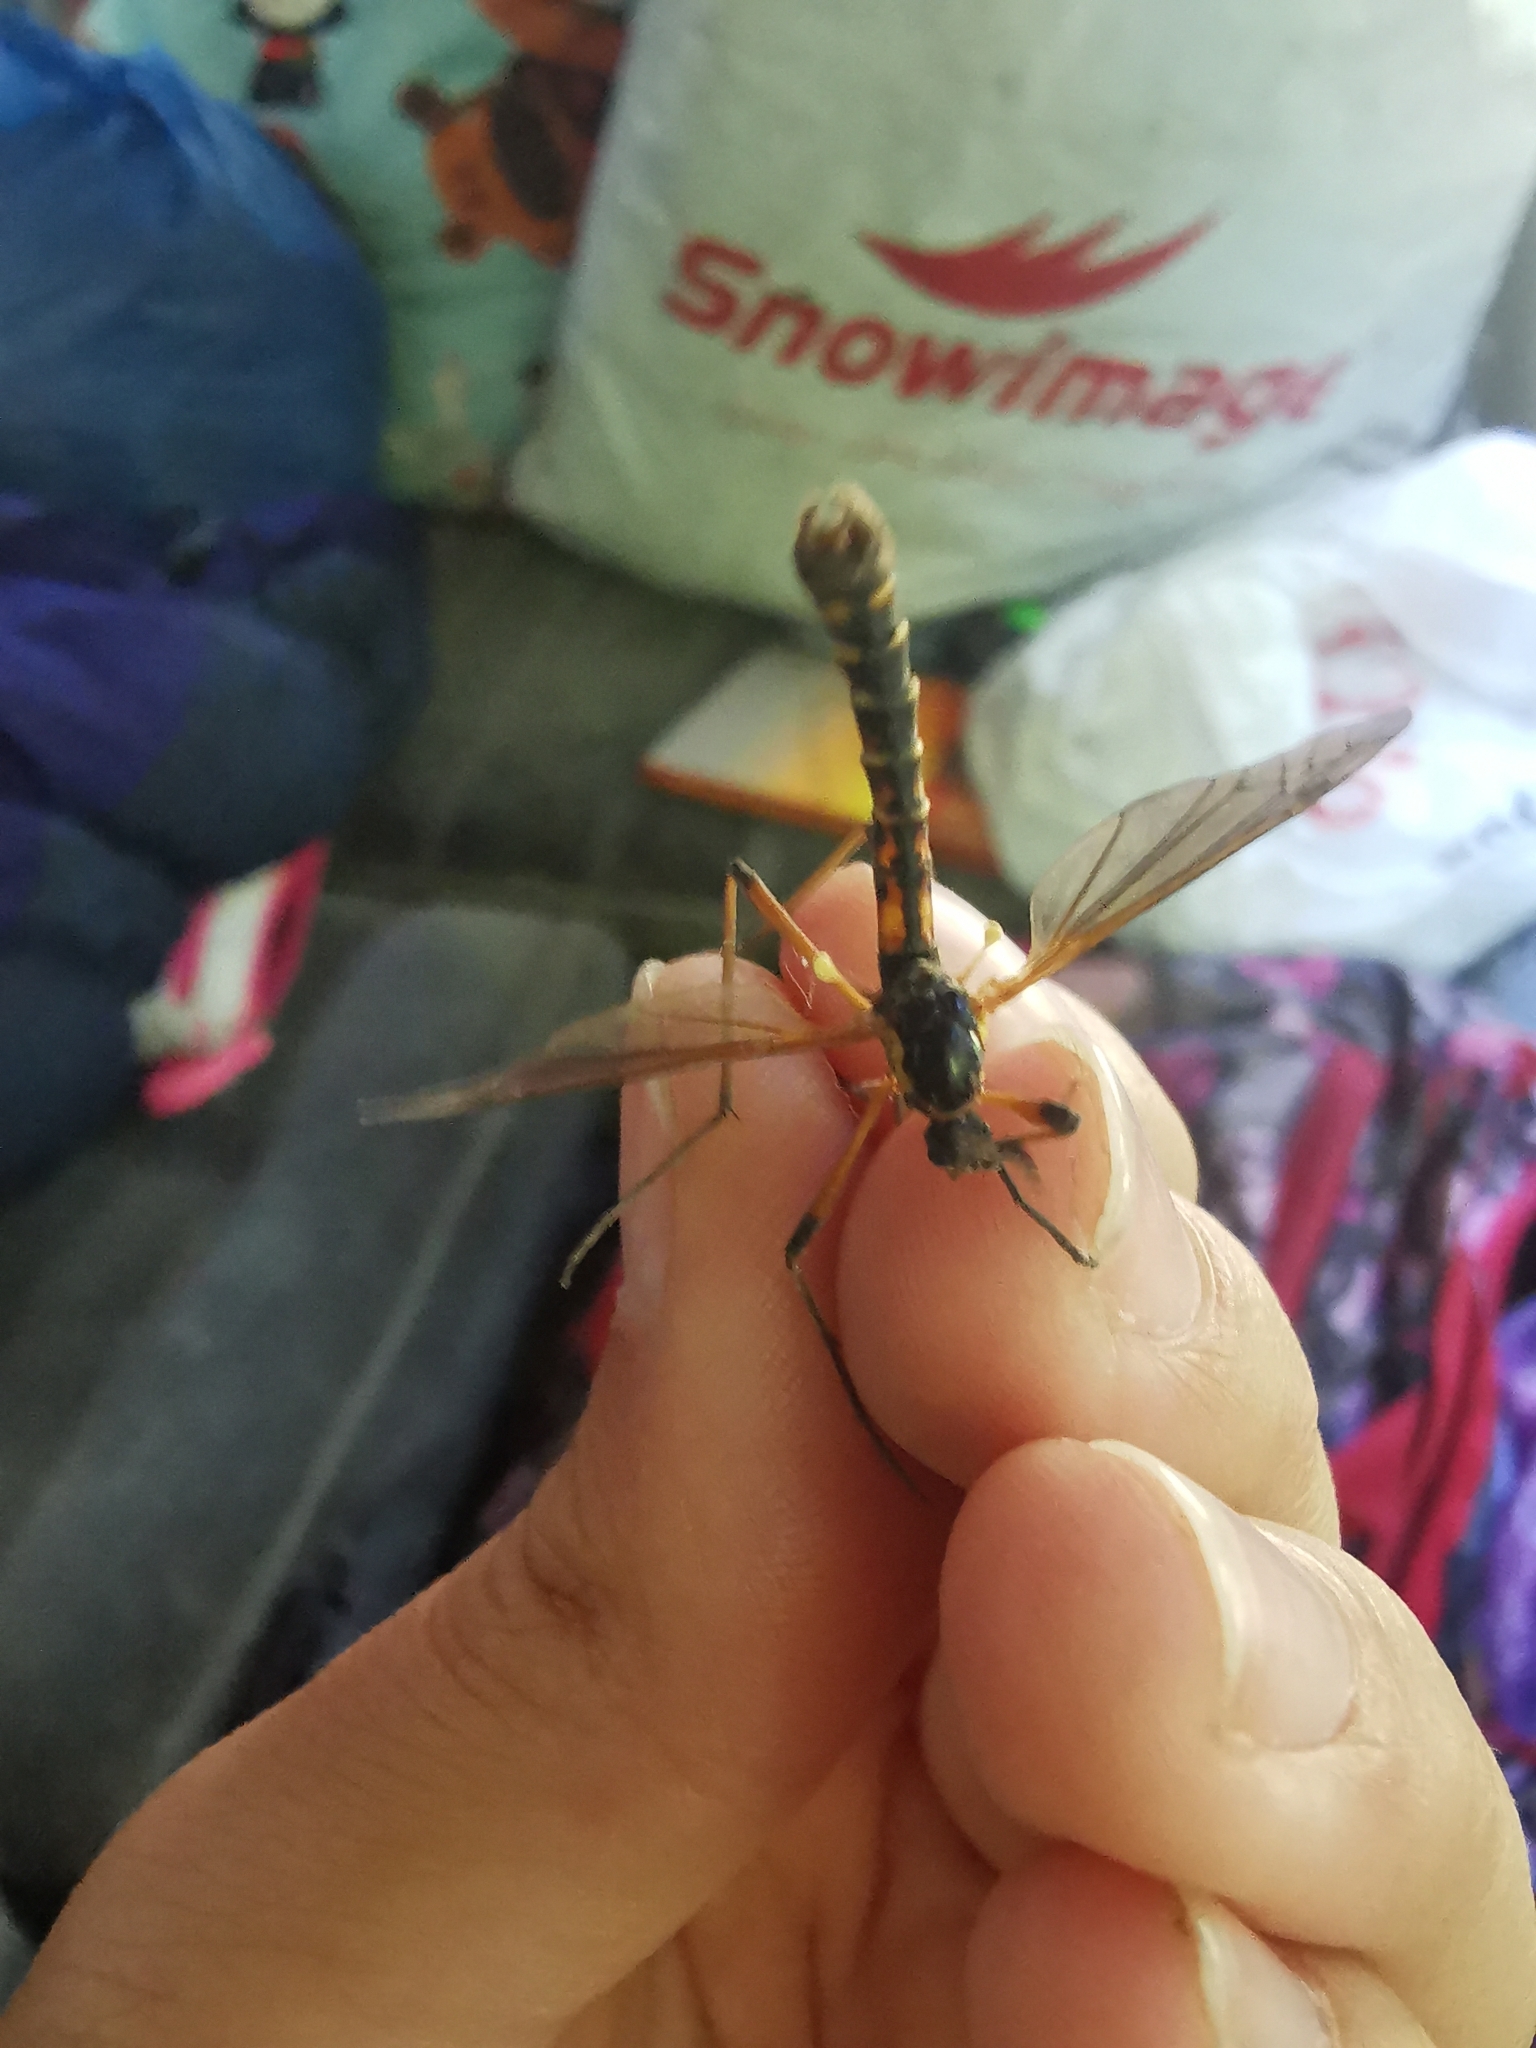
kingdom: Animalia
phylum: Arthropoda
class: Insecta
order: Diptera
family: Tipulidae
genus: Phoroctenia
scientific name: Phoroctenia vittata
